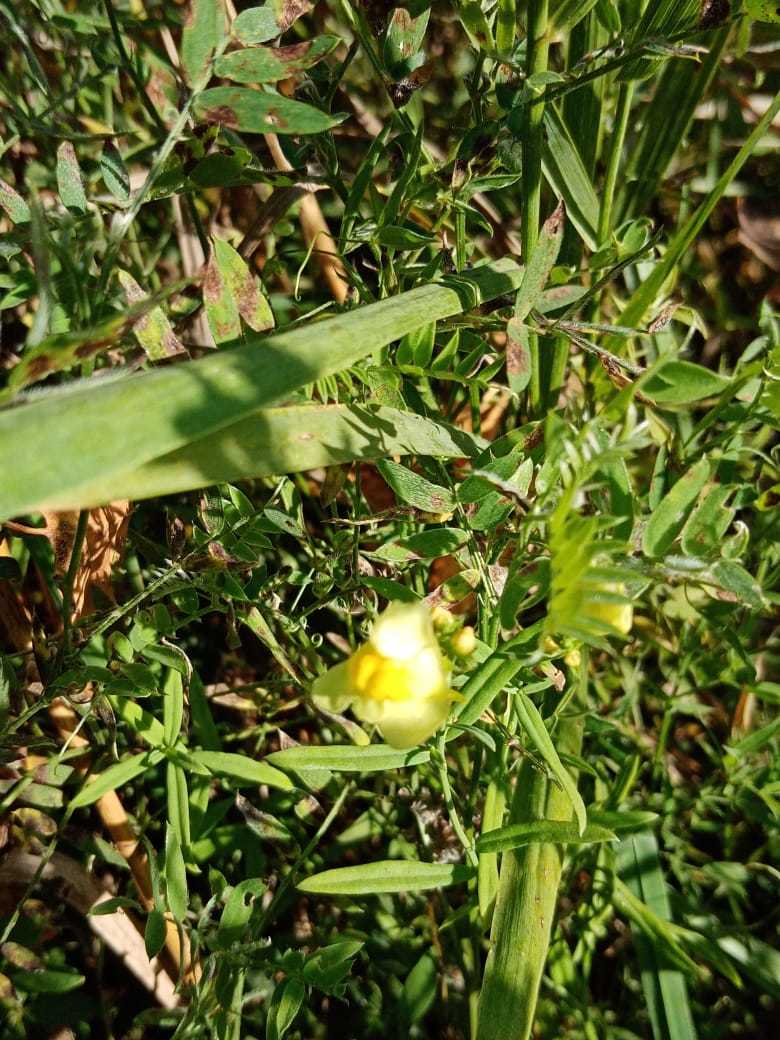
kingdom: Plantae
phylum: Tracheophyta
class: Magnoliopsida
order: Lamiales
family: Plantaginaceae
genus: Linaria
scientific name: Linaria vulgaris
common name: Butter and eggs
